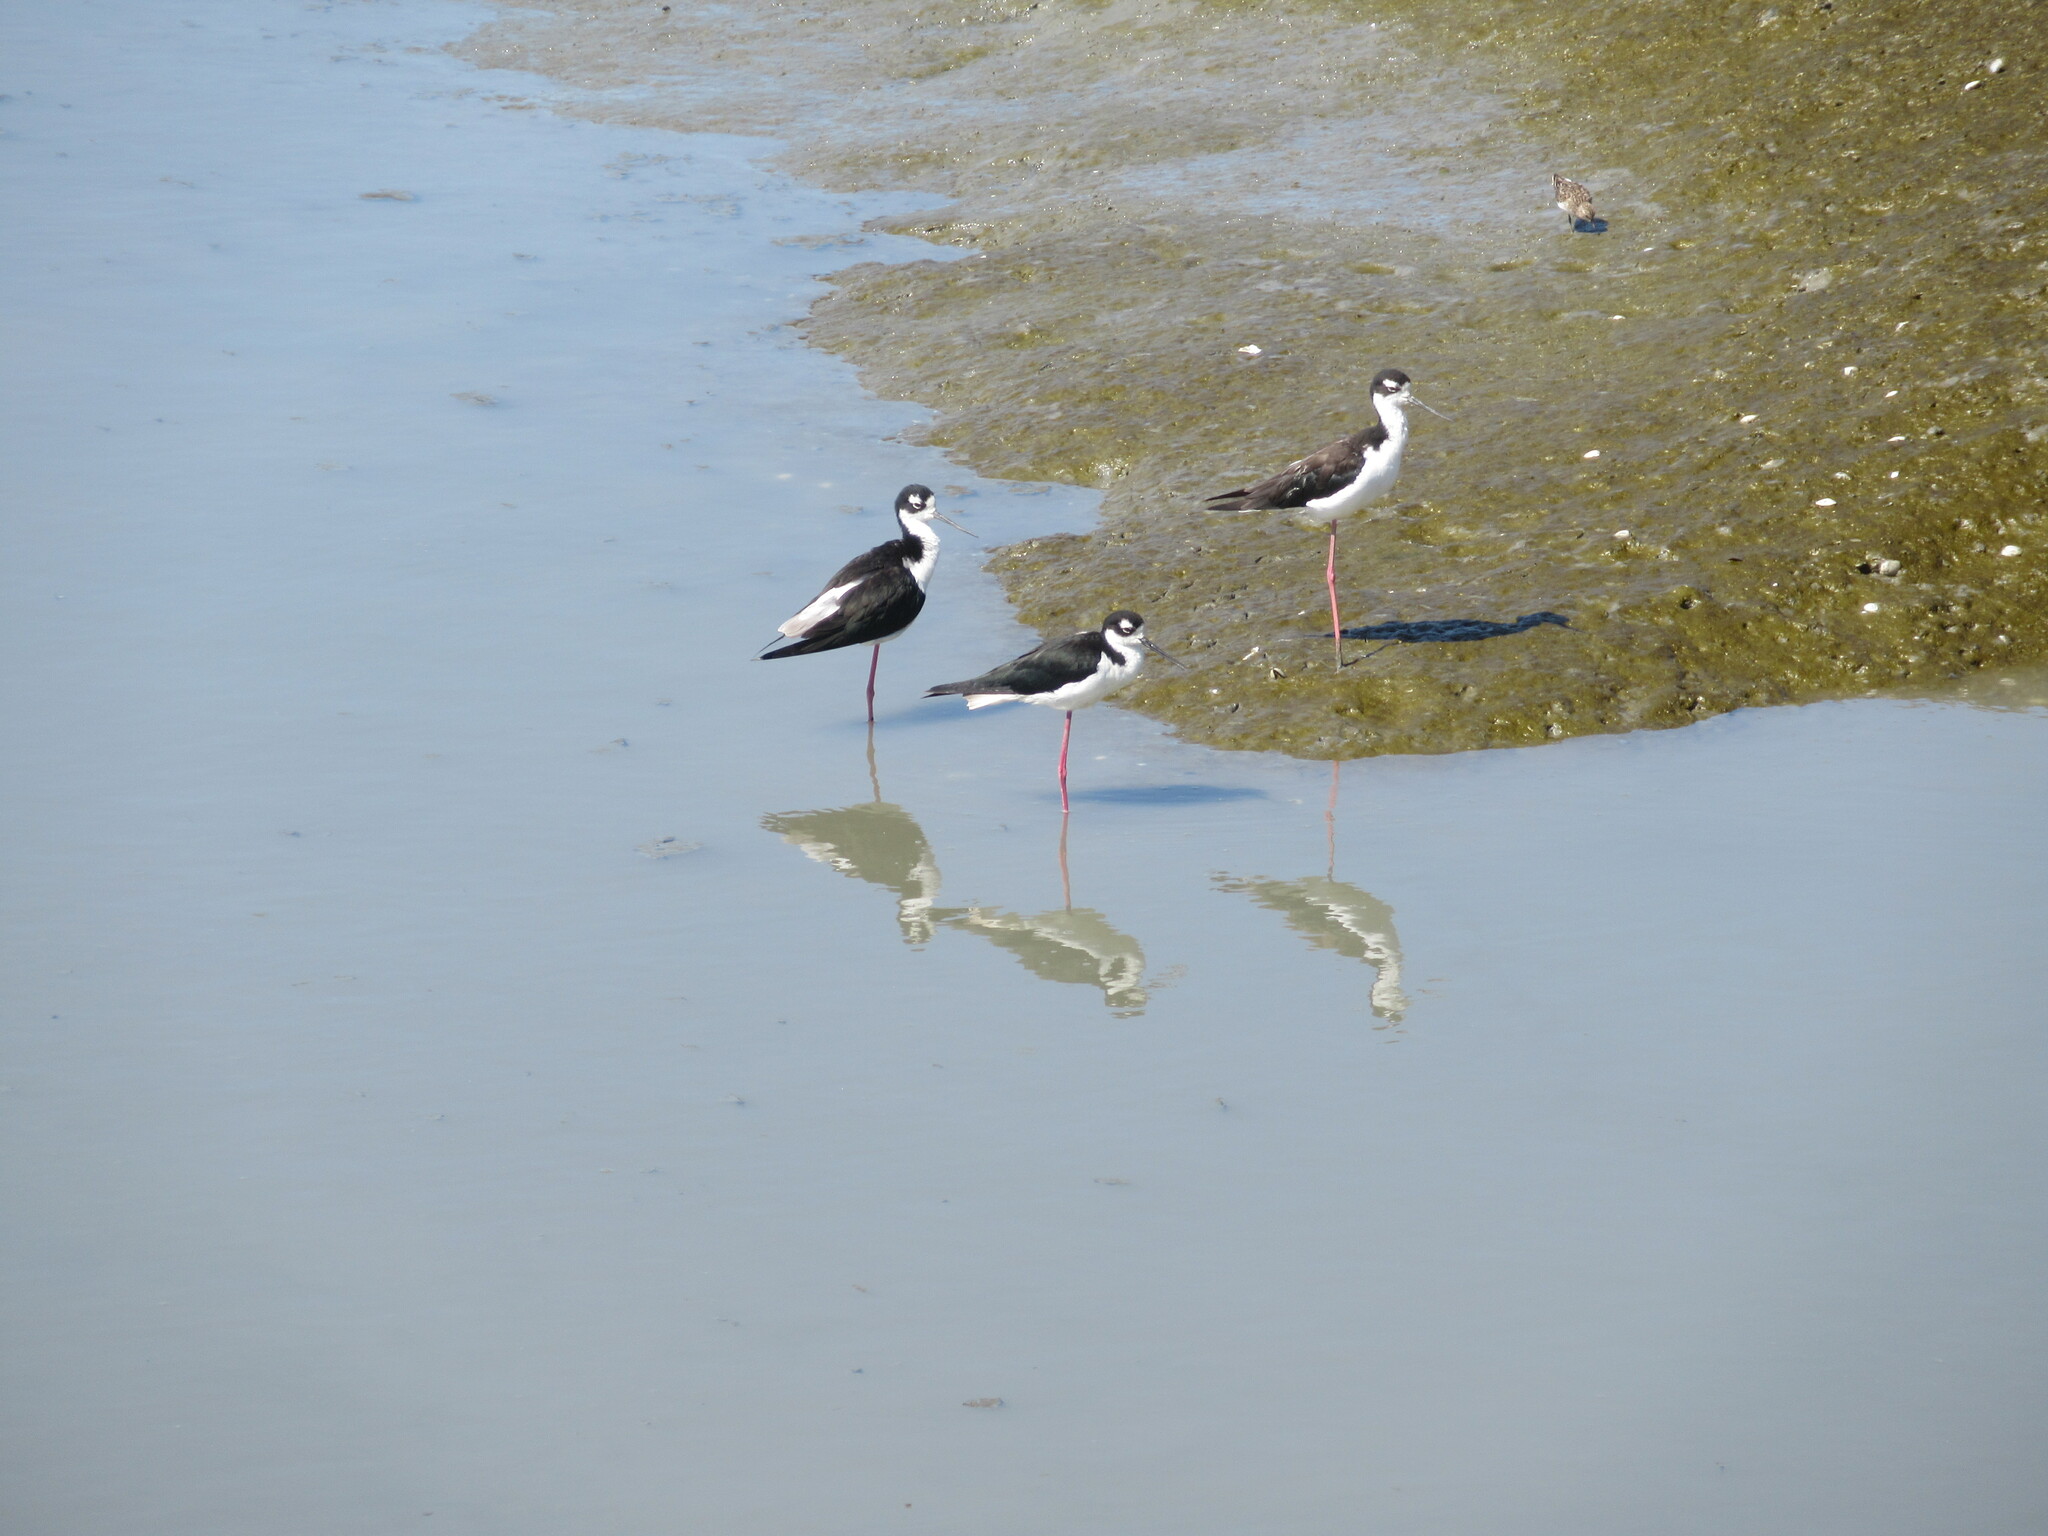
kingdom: Animalia
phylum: Chordata
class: Aves
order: Charadriiformes
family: Recurvirostridae
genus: Himantopus
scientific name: Himantopus mexicanus
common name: Black-necked stilt
